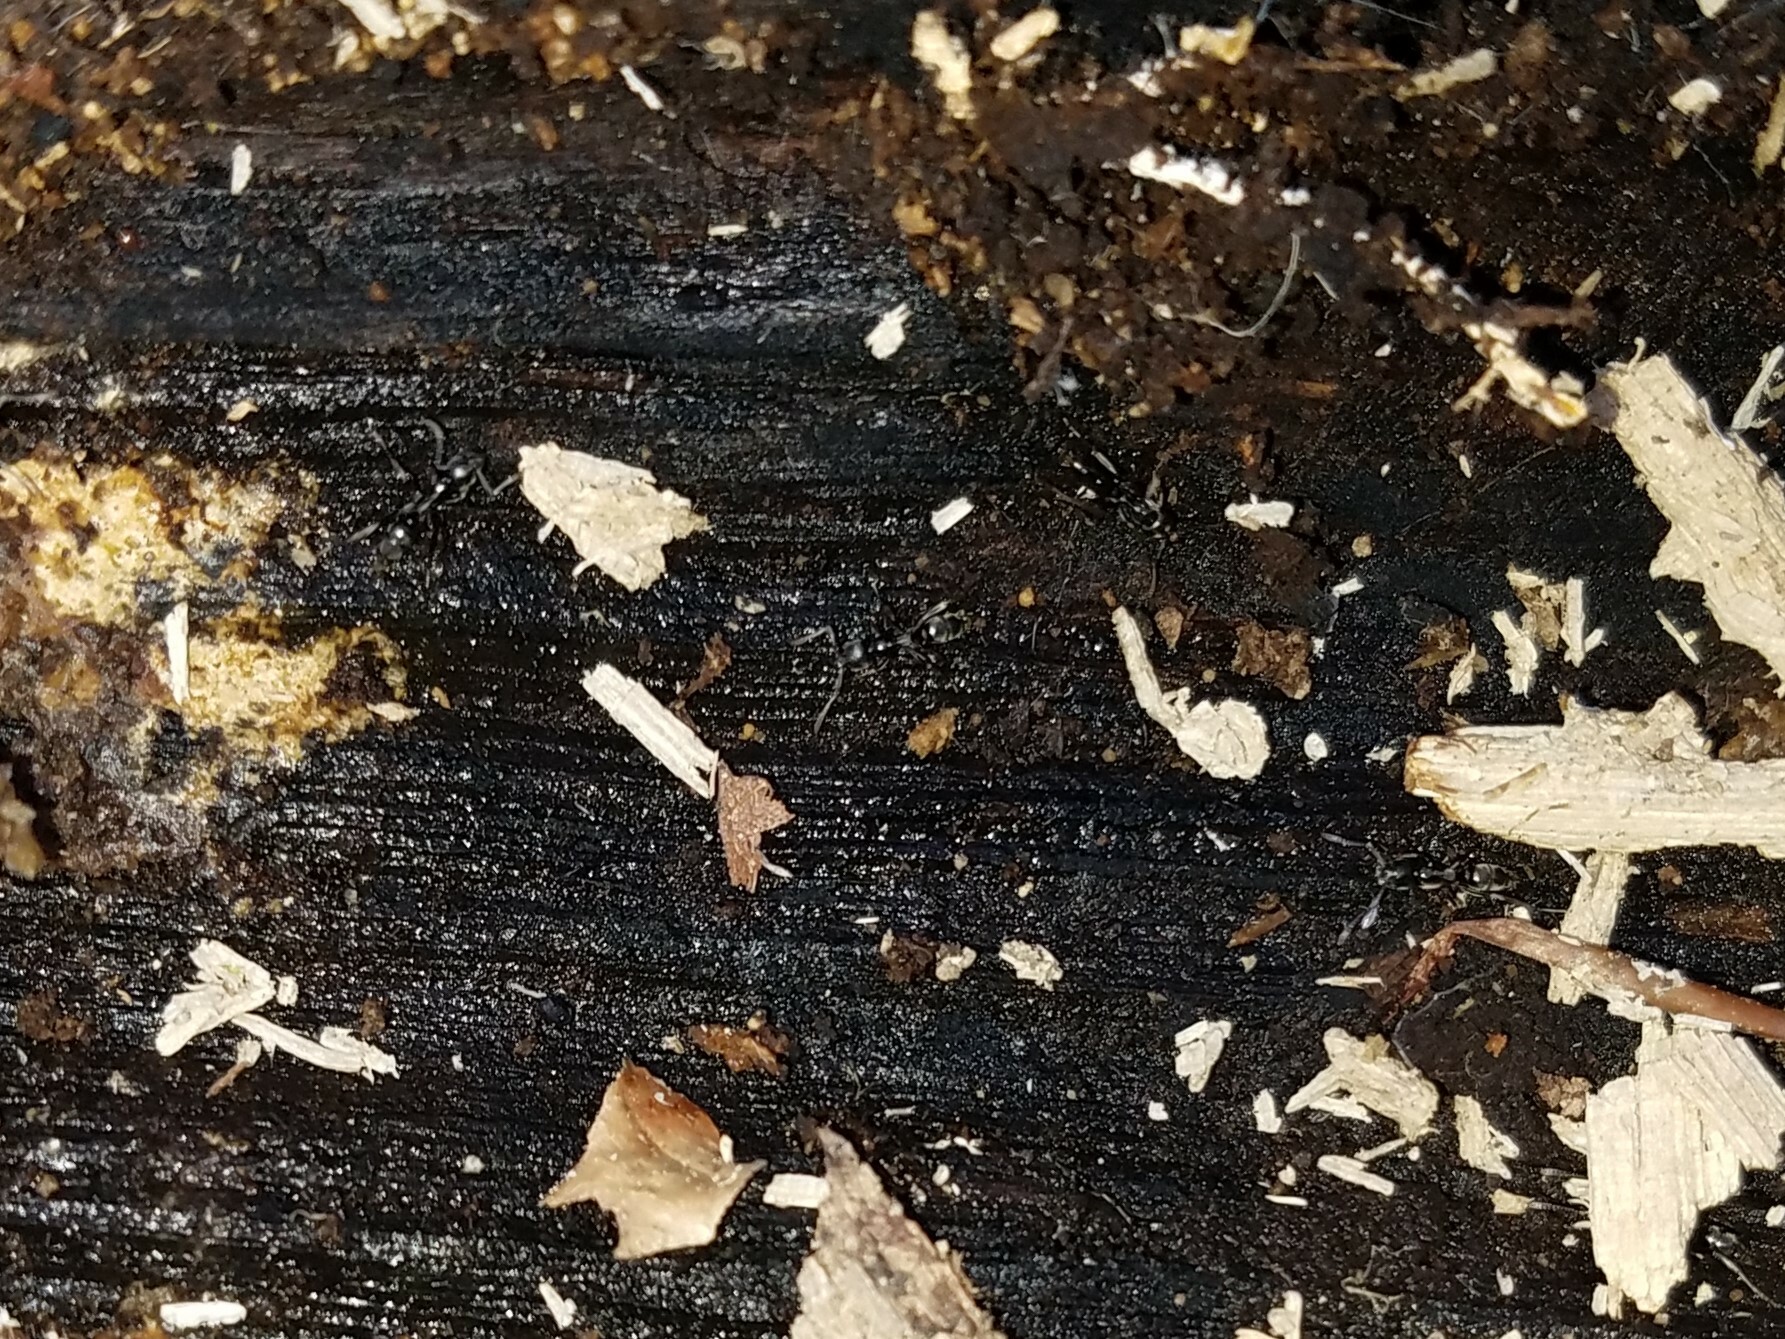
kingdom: Animalia
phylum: Arthropoda
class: Insecta
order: Hymenoptera
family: Formicidae
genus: Pachycondyla
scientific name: Pachycondyla chinensis
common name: Asian needle ant
